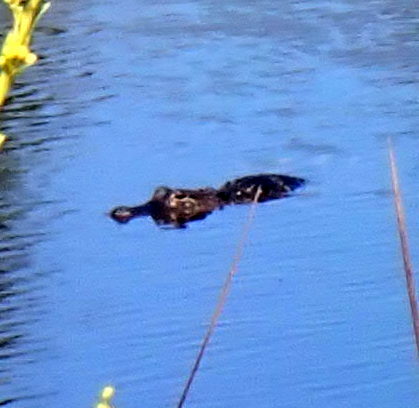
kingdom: Animalia
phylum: Chordata
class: Crocodylia
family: Alligatoridae
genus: Alligator
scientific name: Alligator mississippiensis
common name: American alligator
